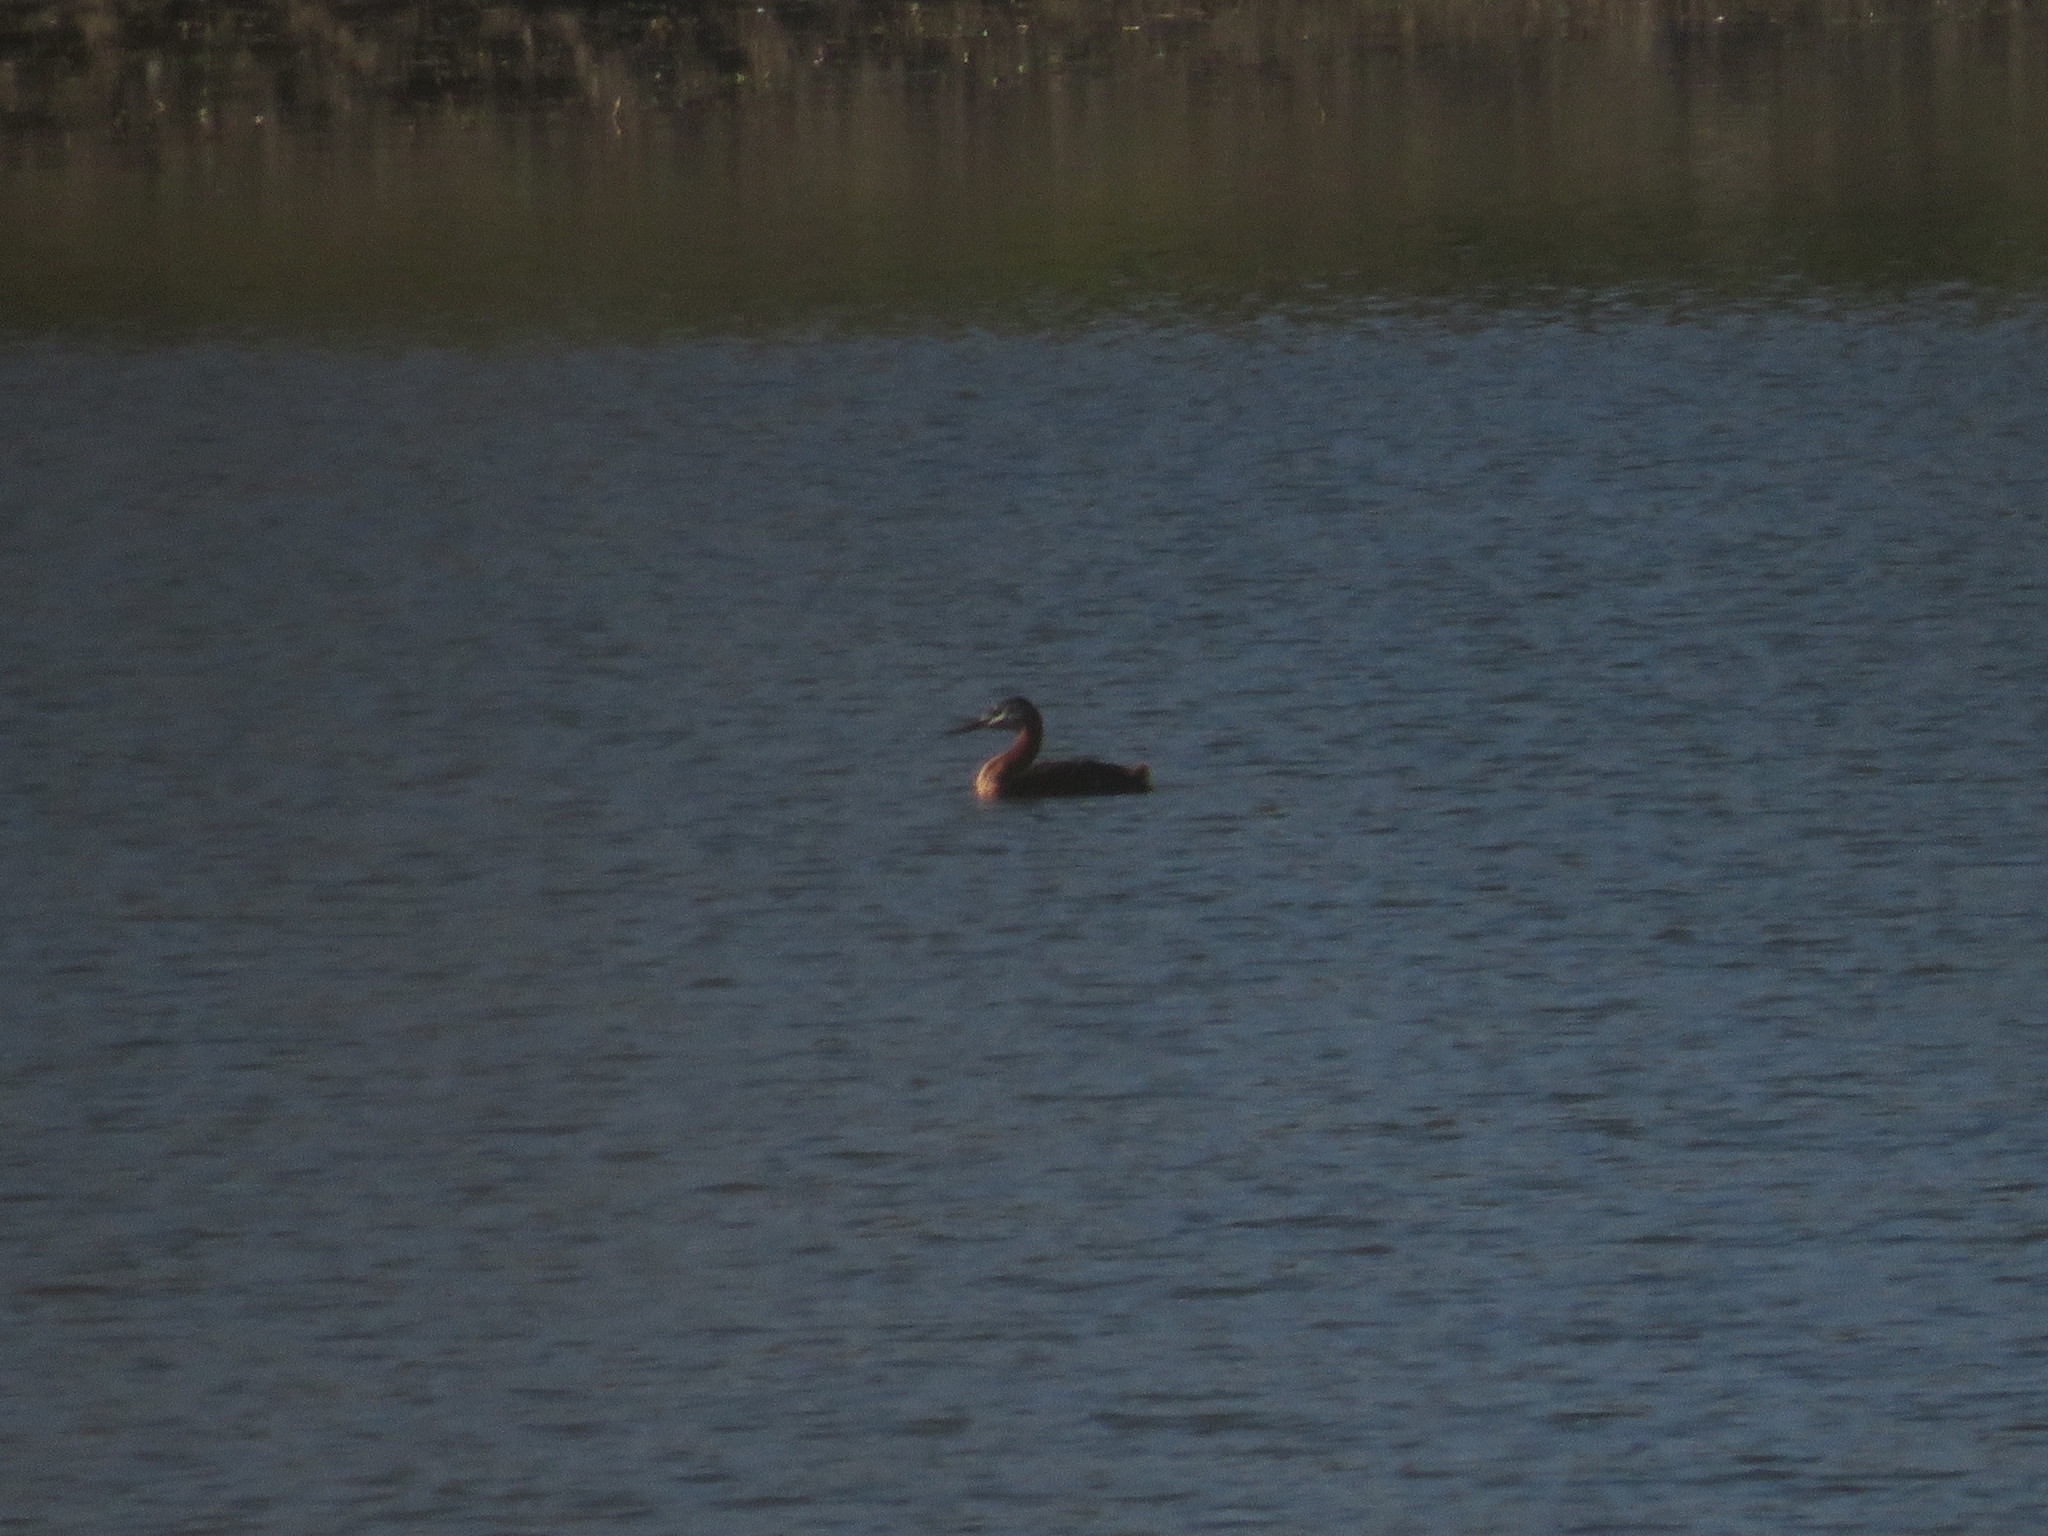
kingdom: Animalia
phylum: Chordata
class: Aves
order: Podicipediformes
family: Podicipedidae
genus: Podiceps
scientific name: Podiceps major
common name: Great grebe
